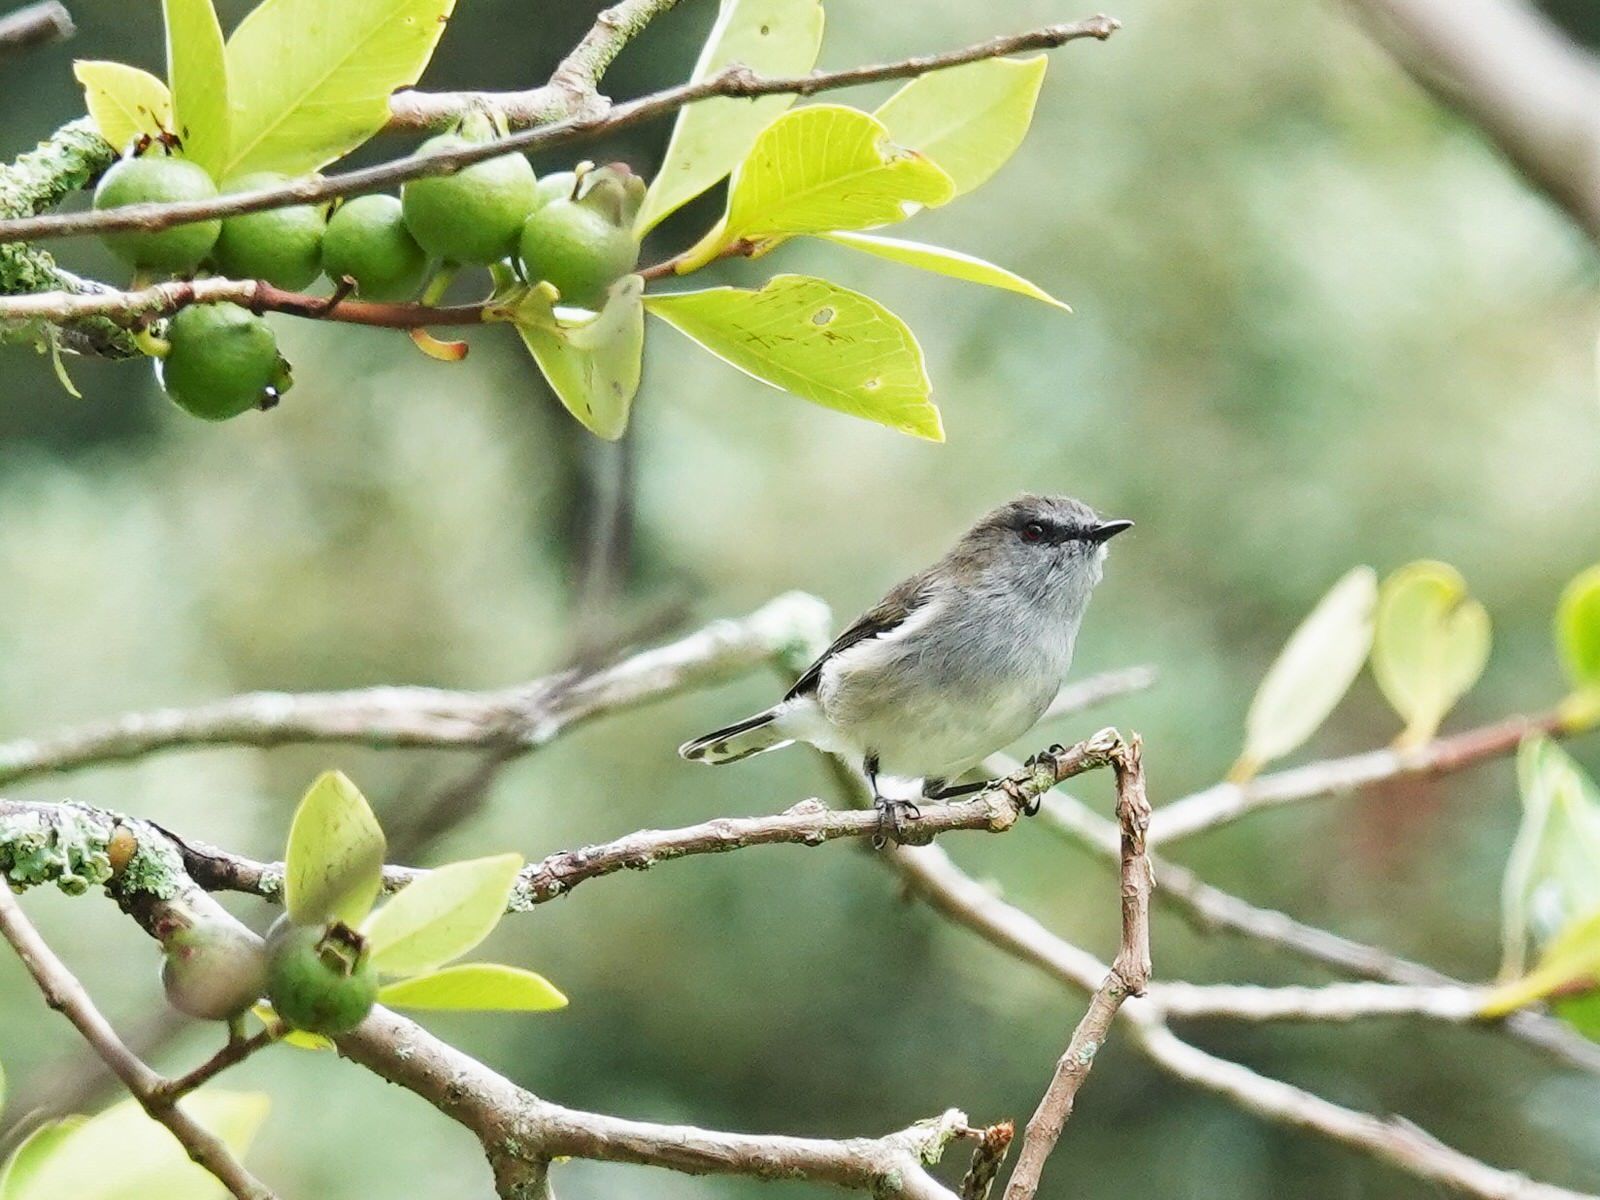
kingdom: Animalia
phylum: Chordata
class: Aves
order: Passeriformes
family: Acanthizidae
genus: Gerygone
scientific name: Gerygone igata
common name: Grey gerygone
